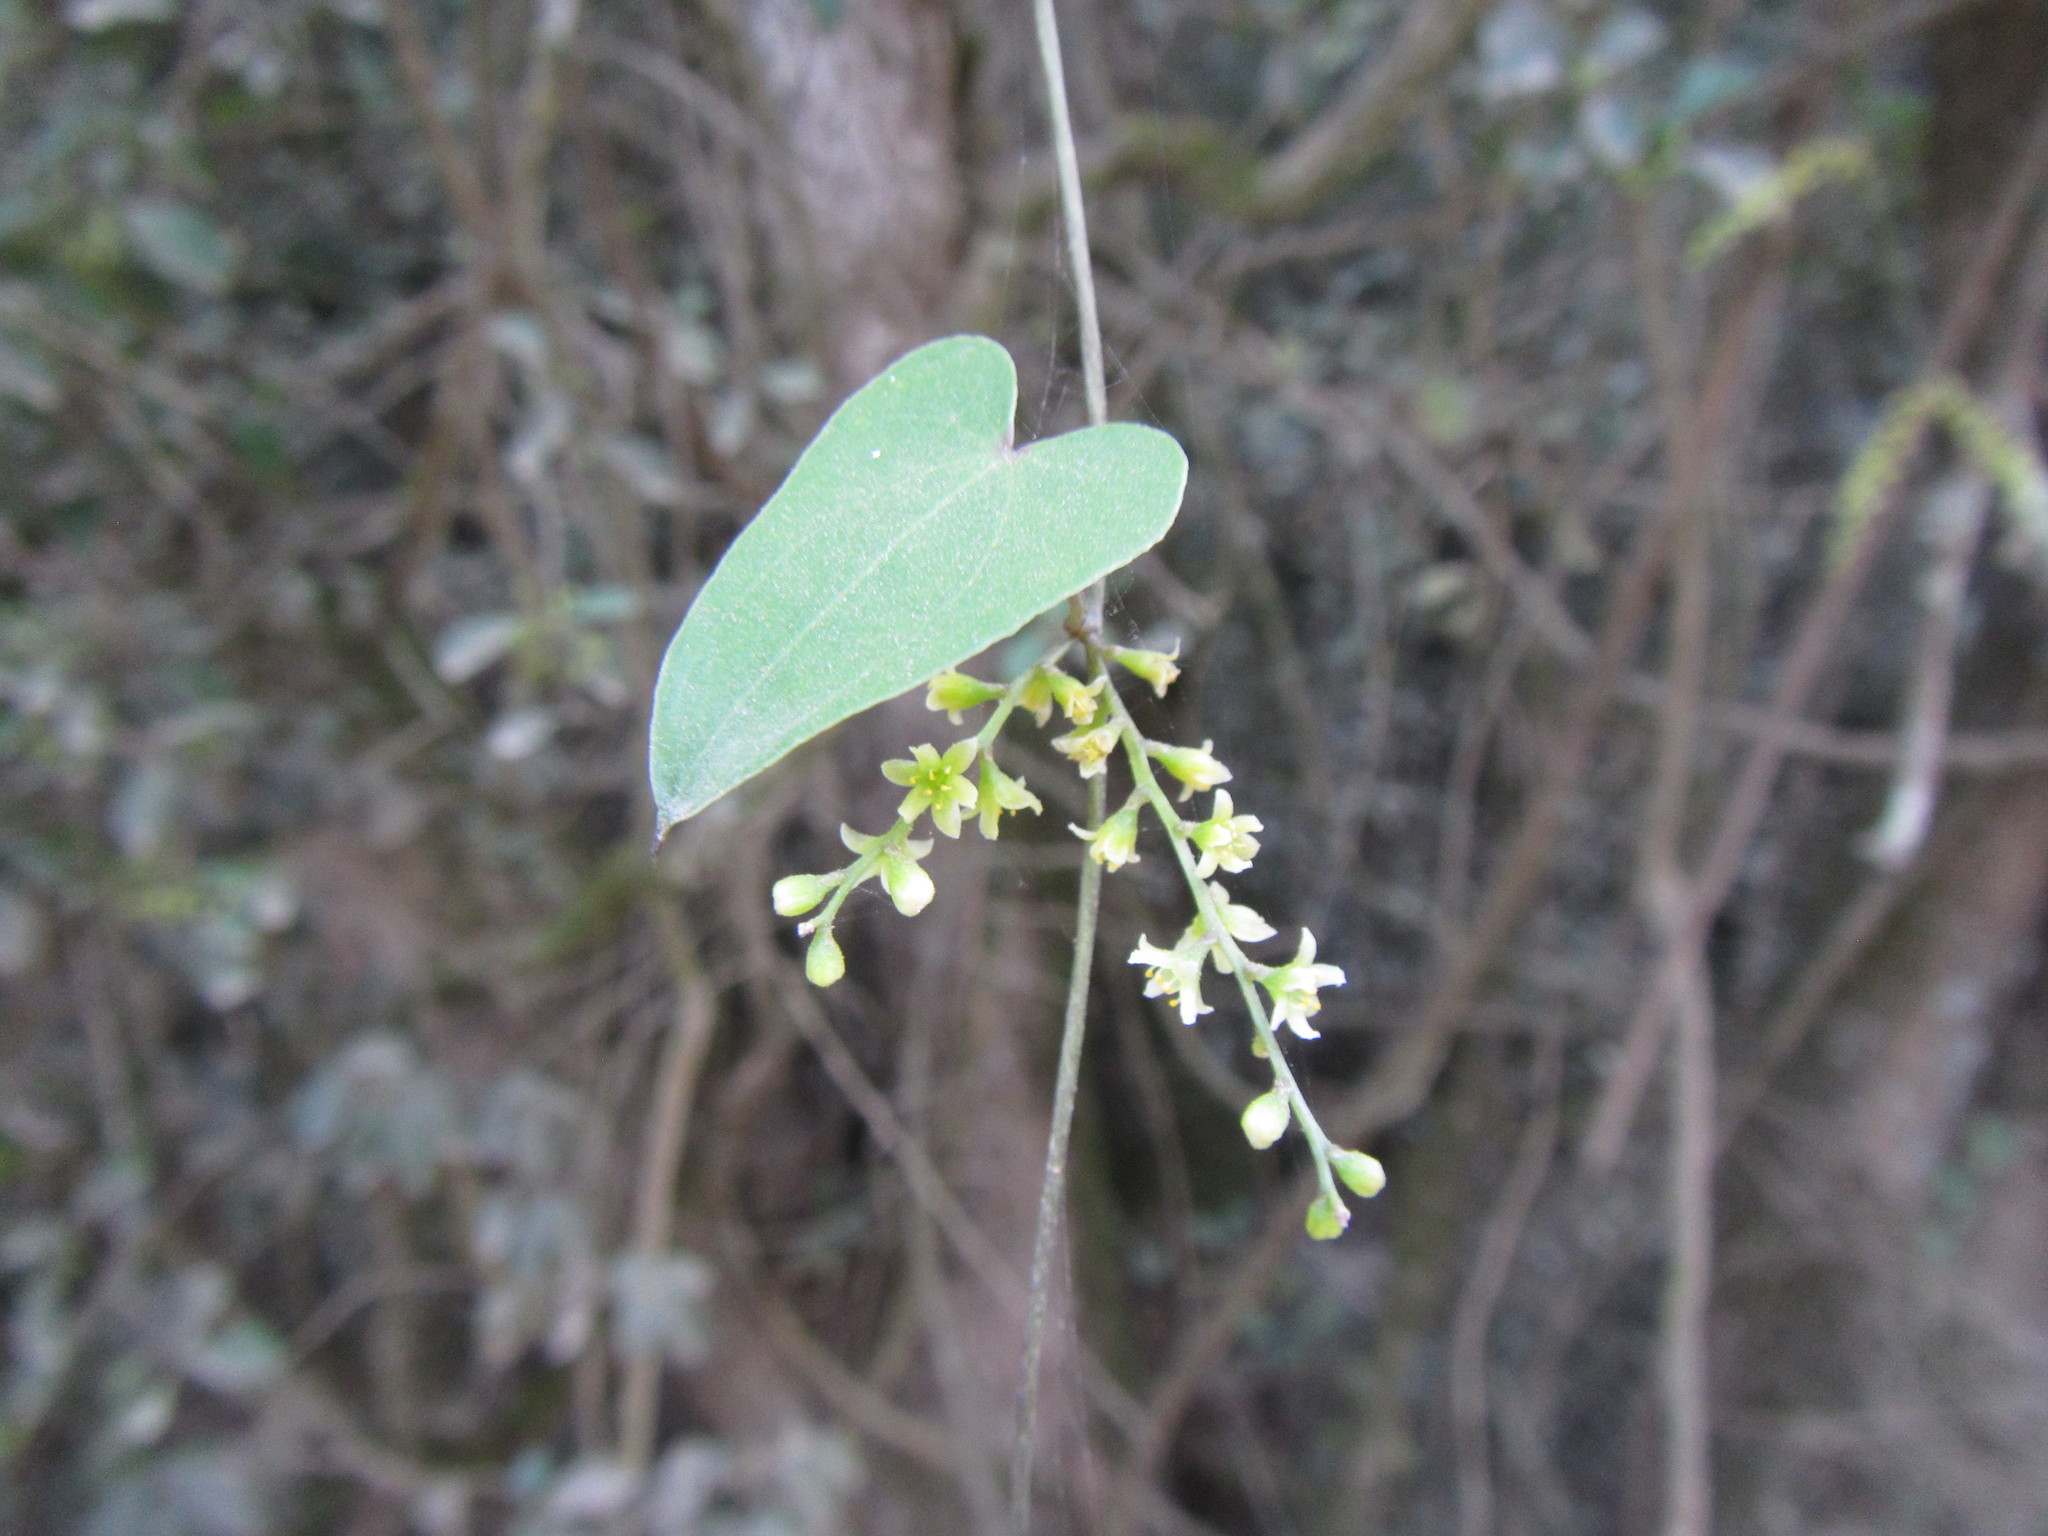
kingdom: Plantae
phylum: Tracheophyta
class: Liliopsida
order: Dioscoreales
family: Dioscoreaceae
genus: Dioscorea
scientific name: Dioscorea mundii
